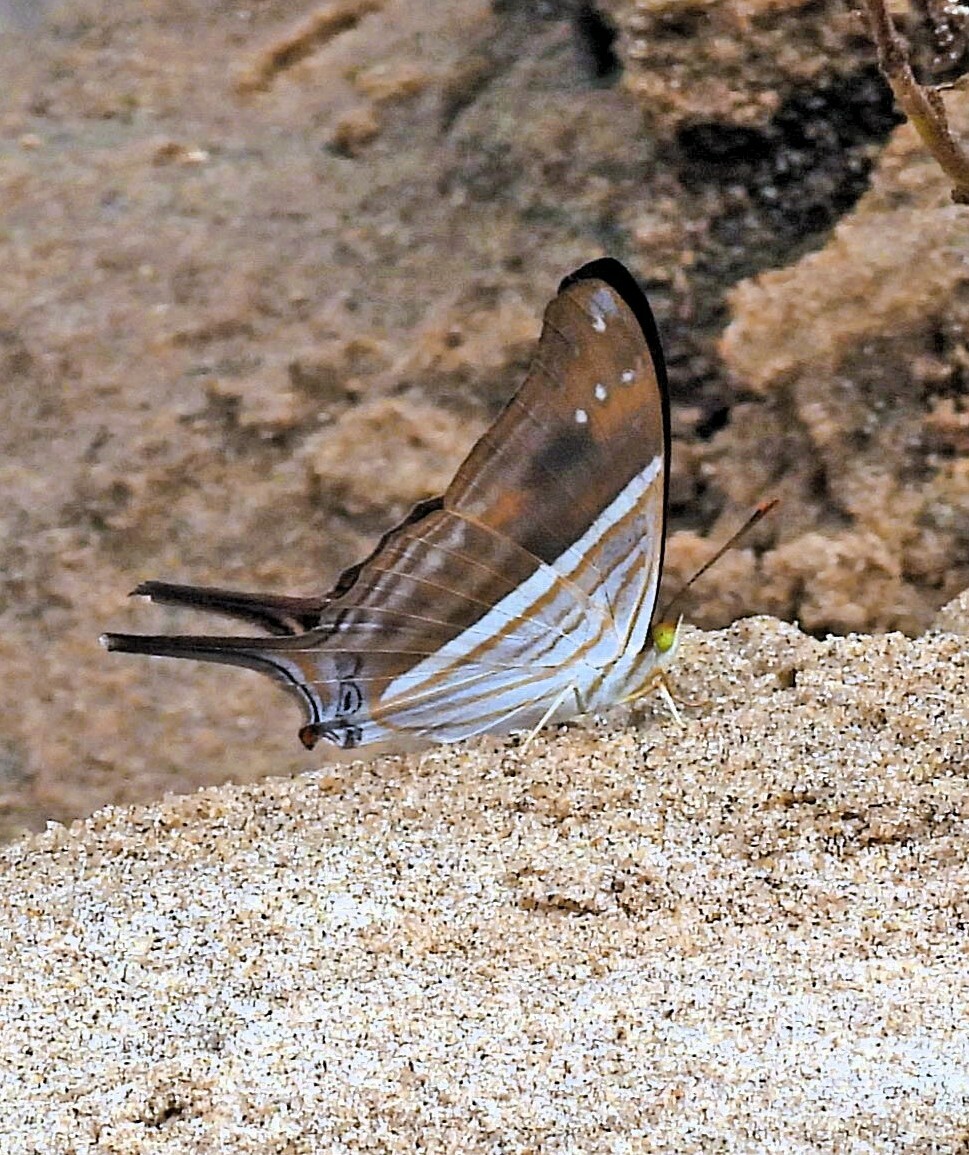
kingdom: Animalia
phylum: Arthropoda
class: Insecta
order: Lepidoptera
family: Nymphalidae
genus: Marpesia
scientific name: Marpesia chiron
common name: Many-banded daggerwing
